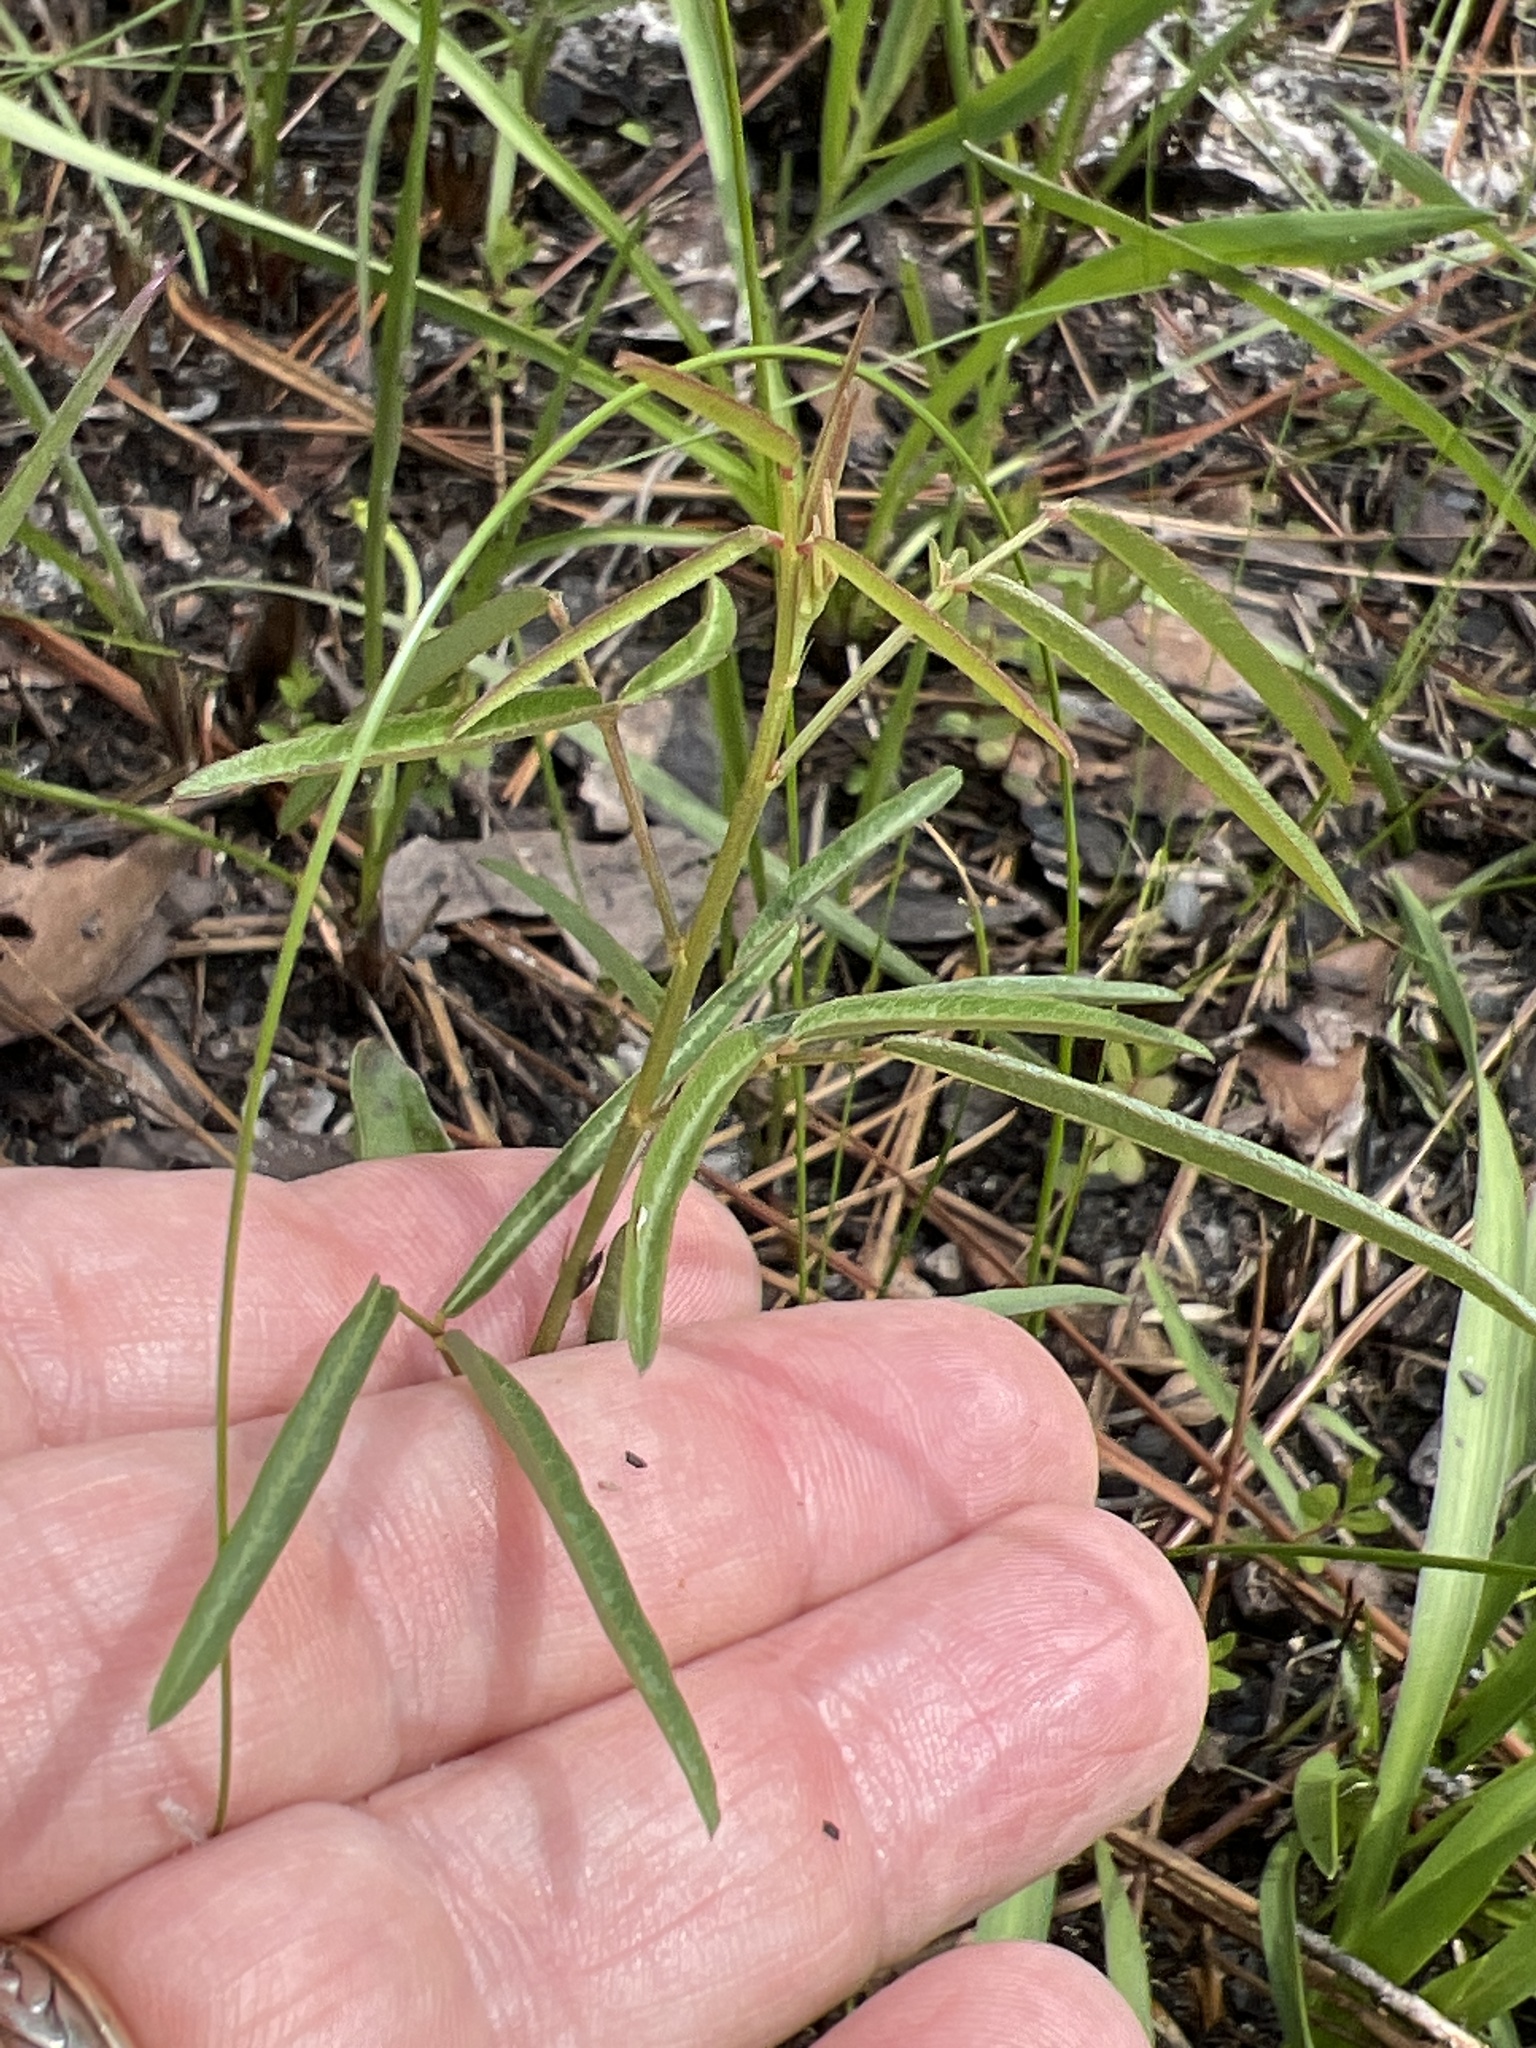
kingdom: Plantae
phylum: Tracheophyta
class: Magnoliopsida
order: Fabales
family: Fabaceae
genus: Desmodium
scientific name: Desmodium strictum
